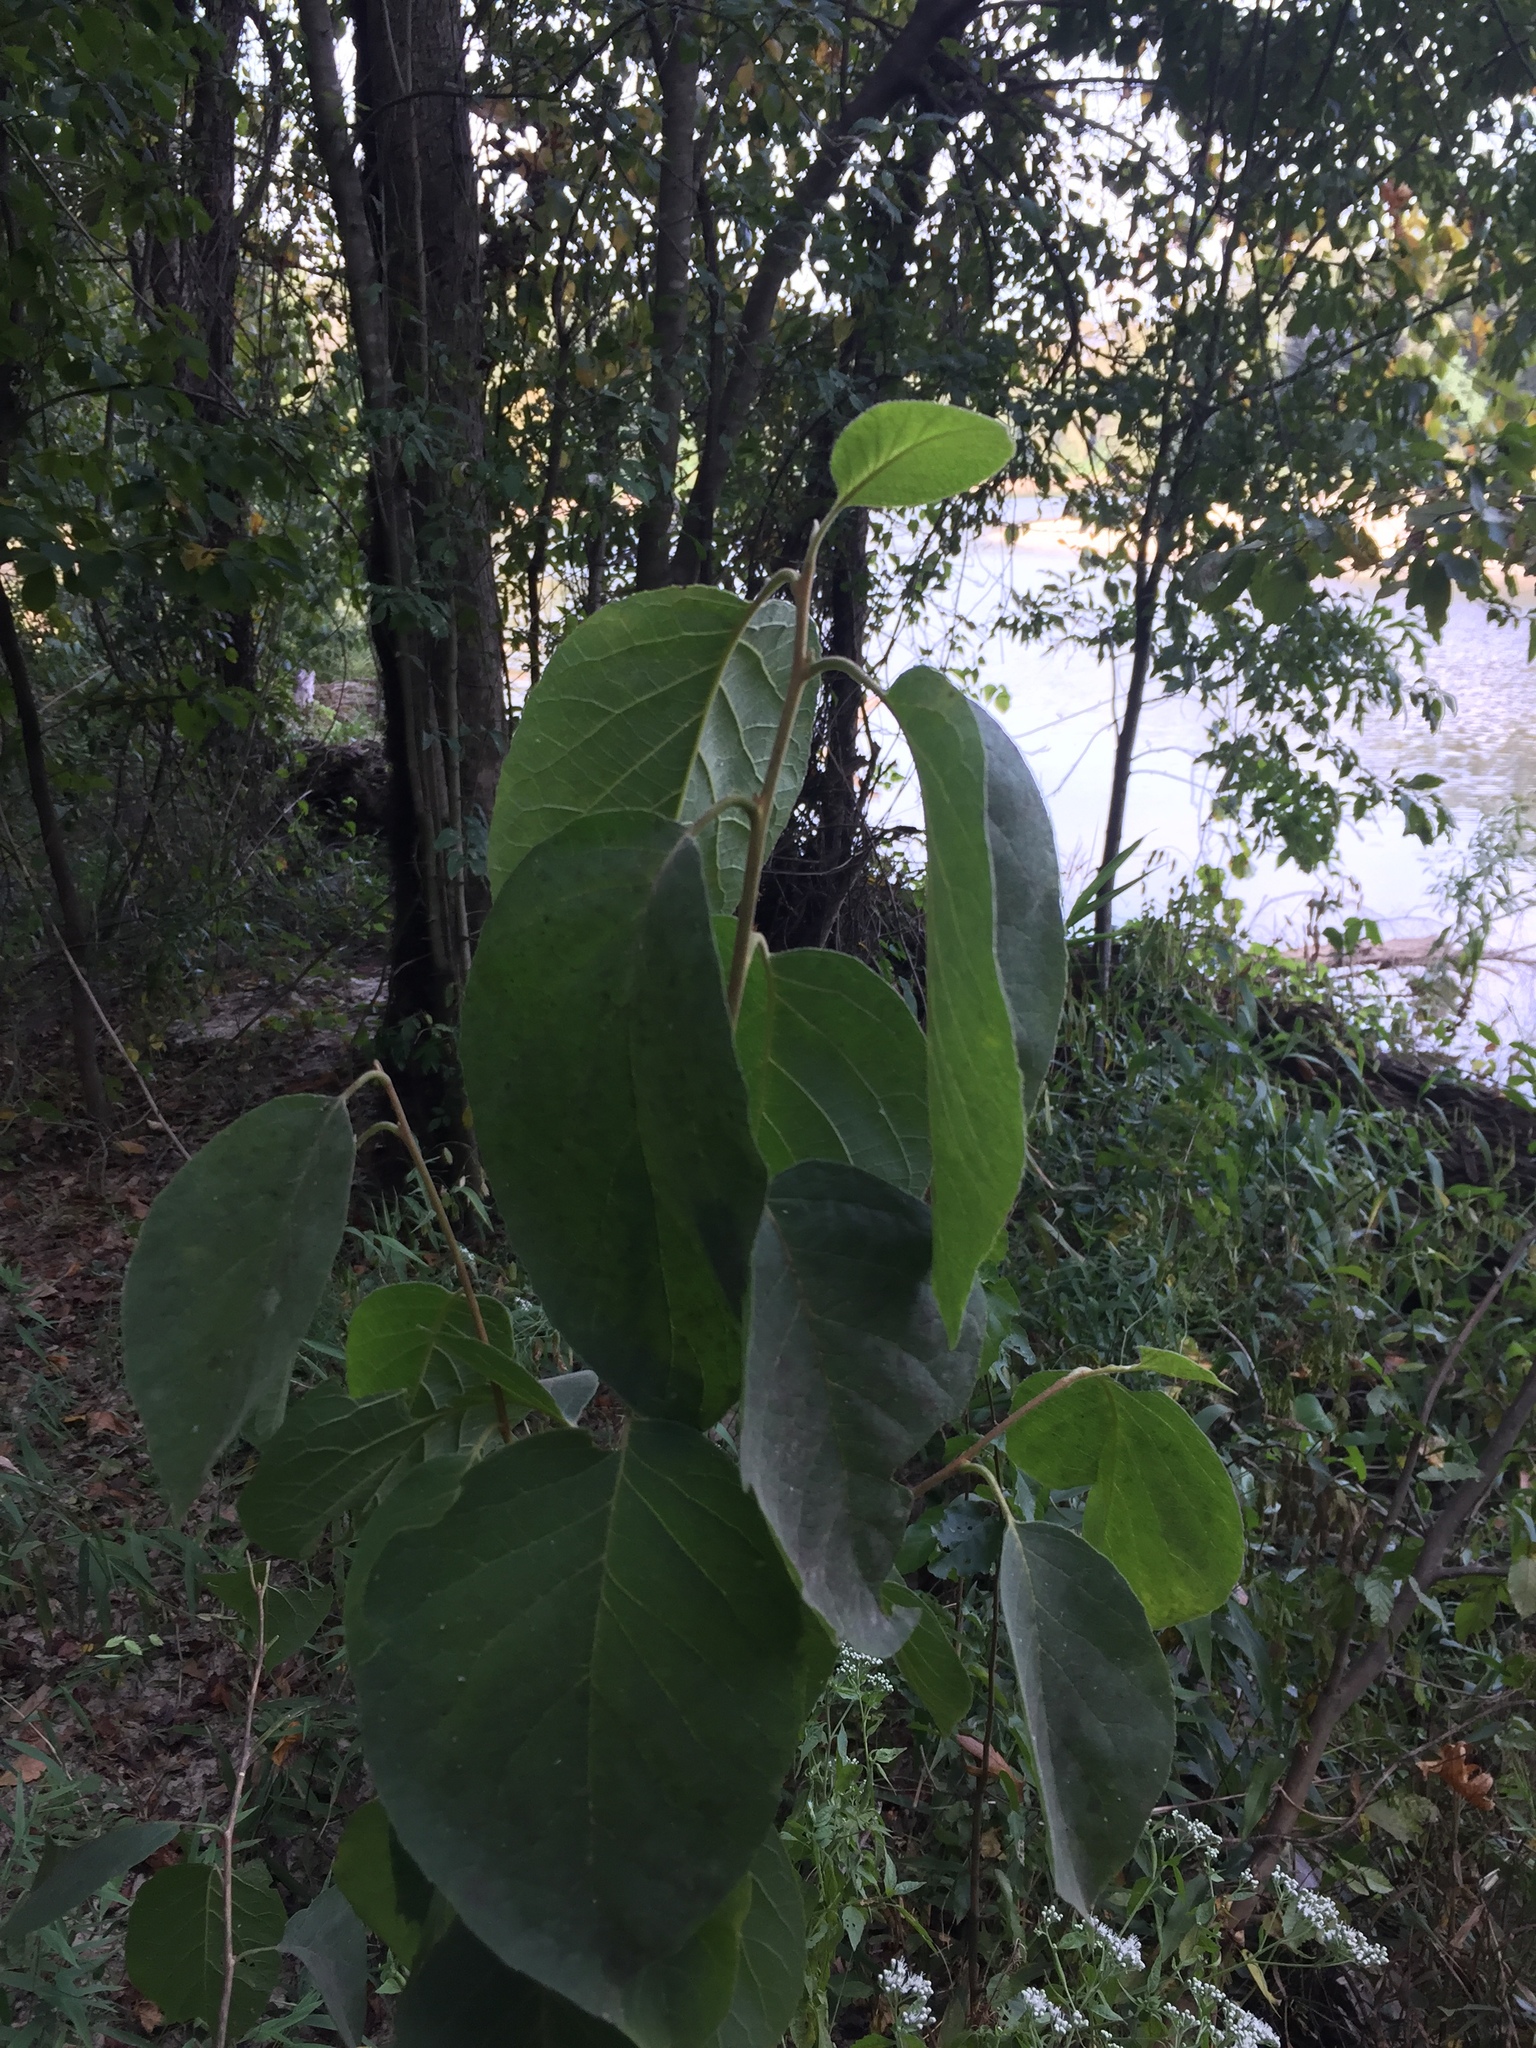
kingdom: Plantae
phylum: Tracheophyta
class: Magnoliopsida
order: Ericales
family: Styracaceae
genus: Styrax
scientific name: Styrax grandifolius
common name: Big-leaf snowbell
